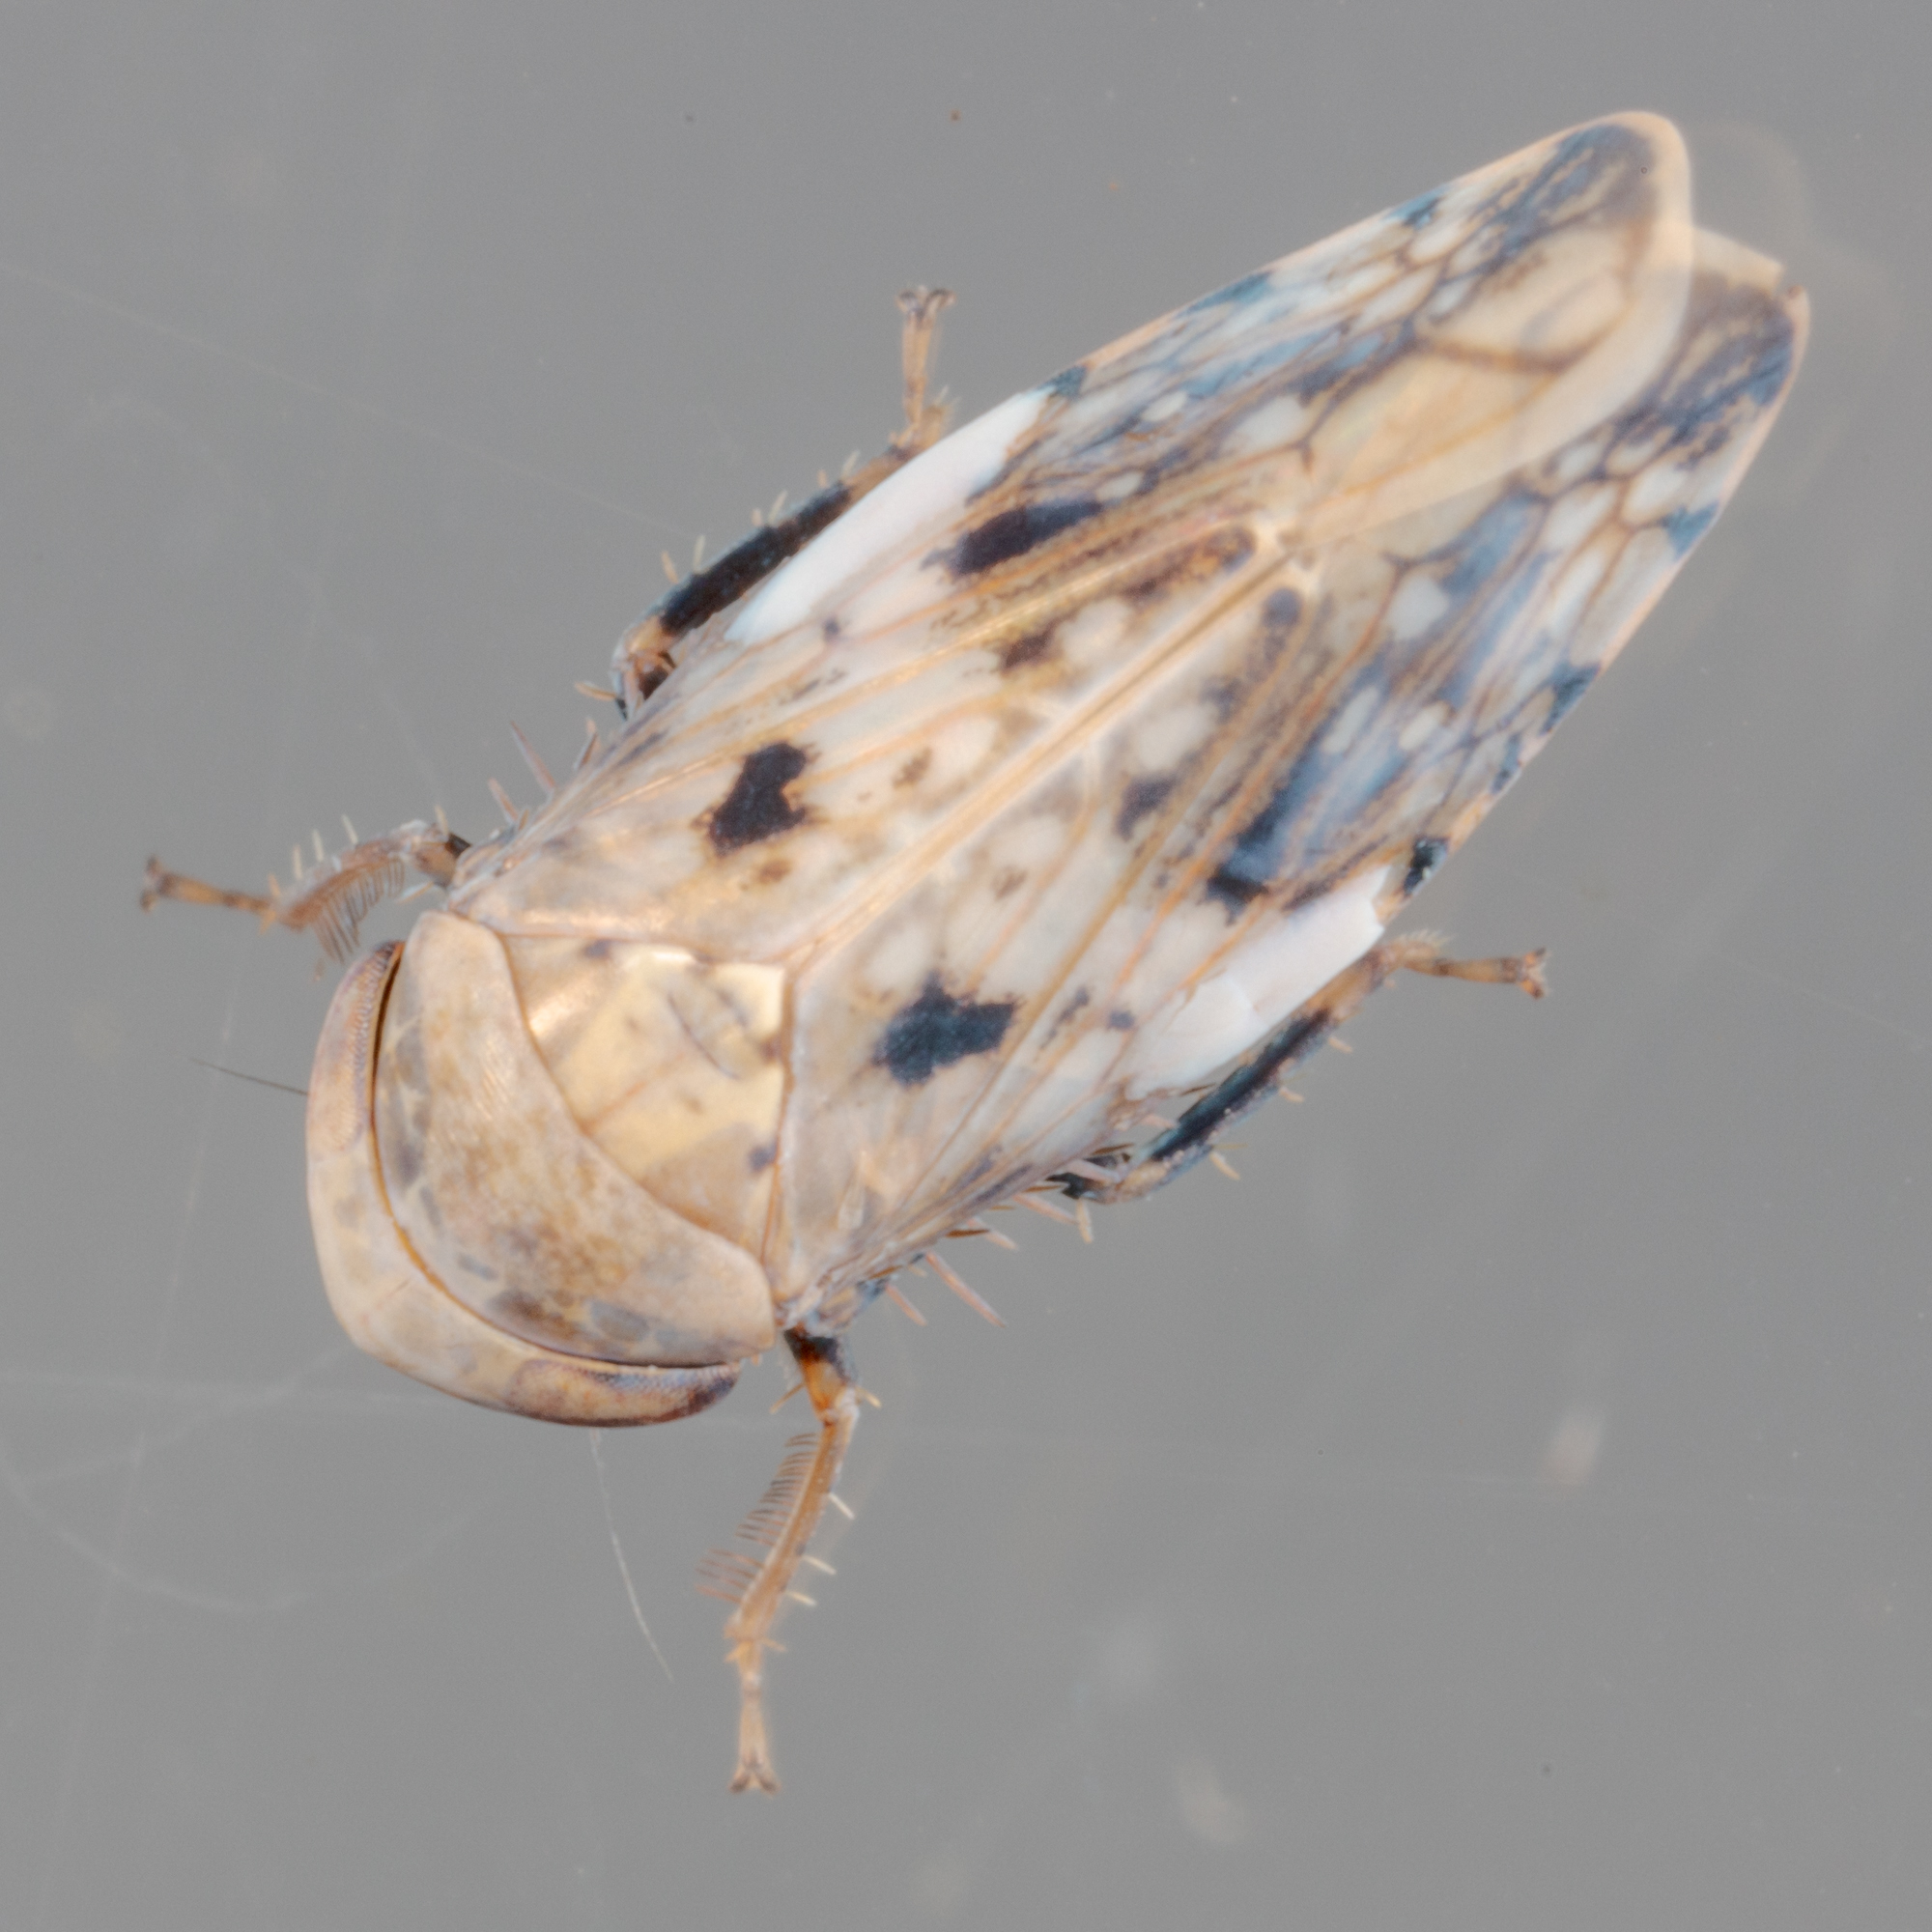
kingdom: Animalia
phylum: Arthropoda
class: Insecta
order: Hemiptera
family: Cicadellidae
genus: Menosoma
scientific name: Menosoma cinctum
